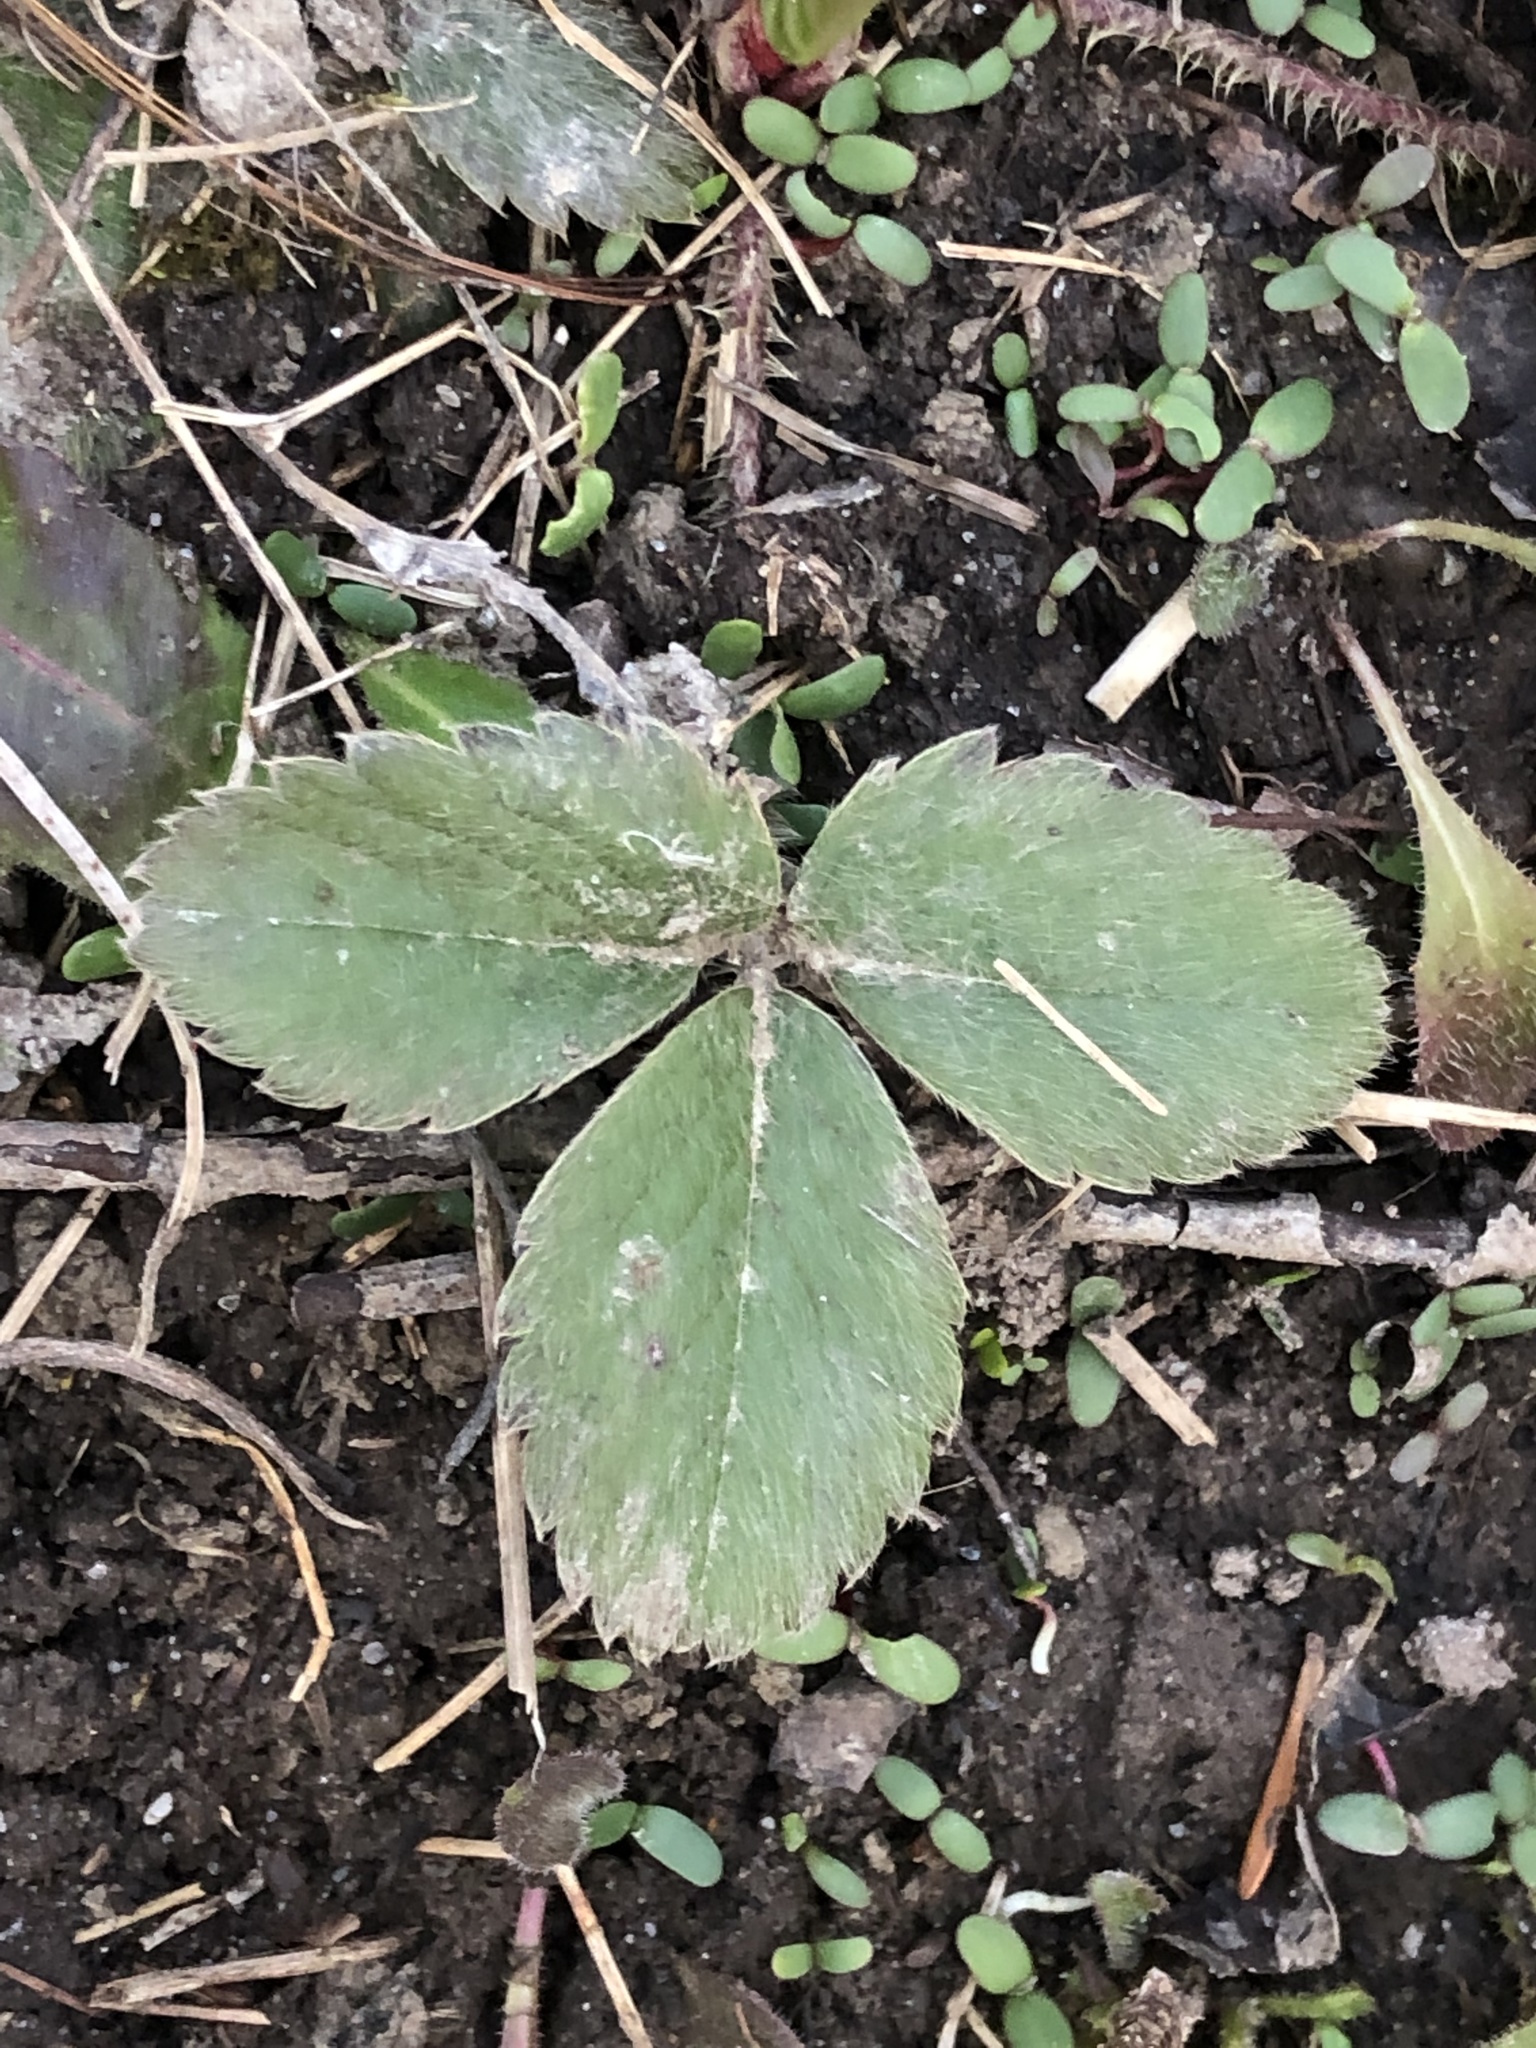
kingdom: Plantae
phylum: Tracheophyta
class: Magnoliopsida
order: Rosales
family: Rosaceae
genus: Fragaria
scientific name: Fragaria virginiana
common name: Thickleaved wild strawberry
